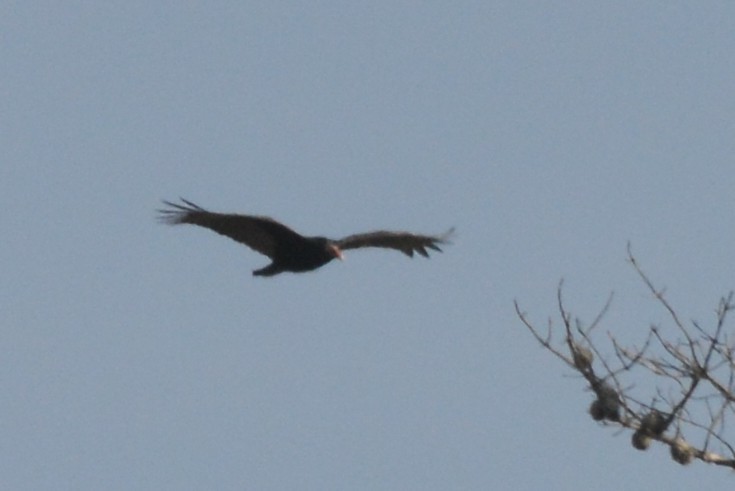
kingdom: Animalia
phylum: Chordata
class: Aves
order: Accipitriformes
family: Cathartidae
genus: Cathartes
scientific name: Cathartes aura
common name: Turkey vulture
